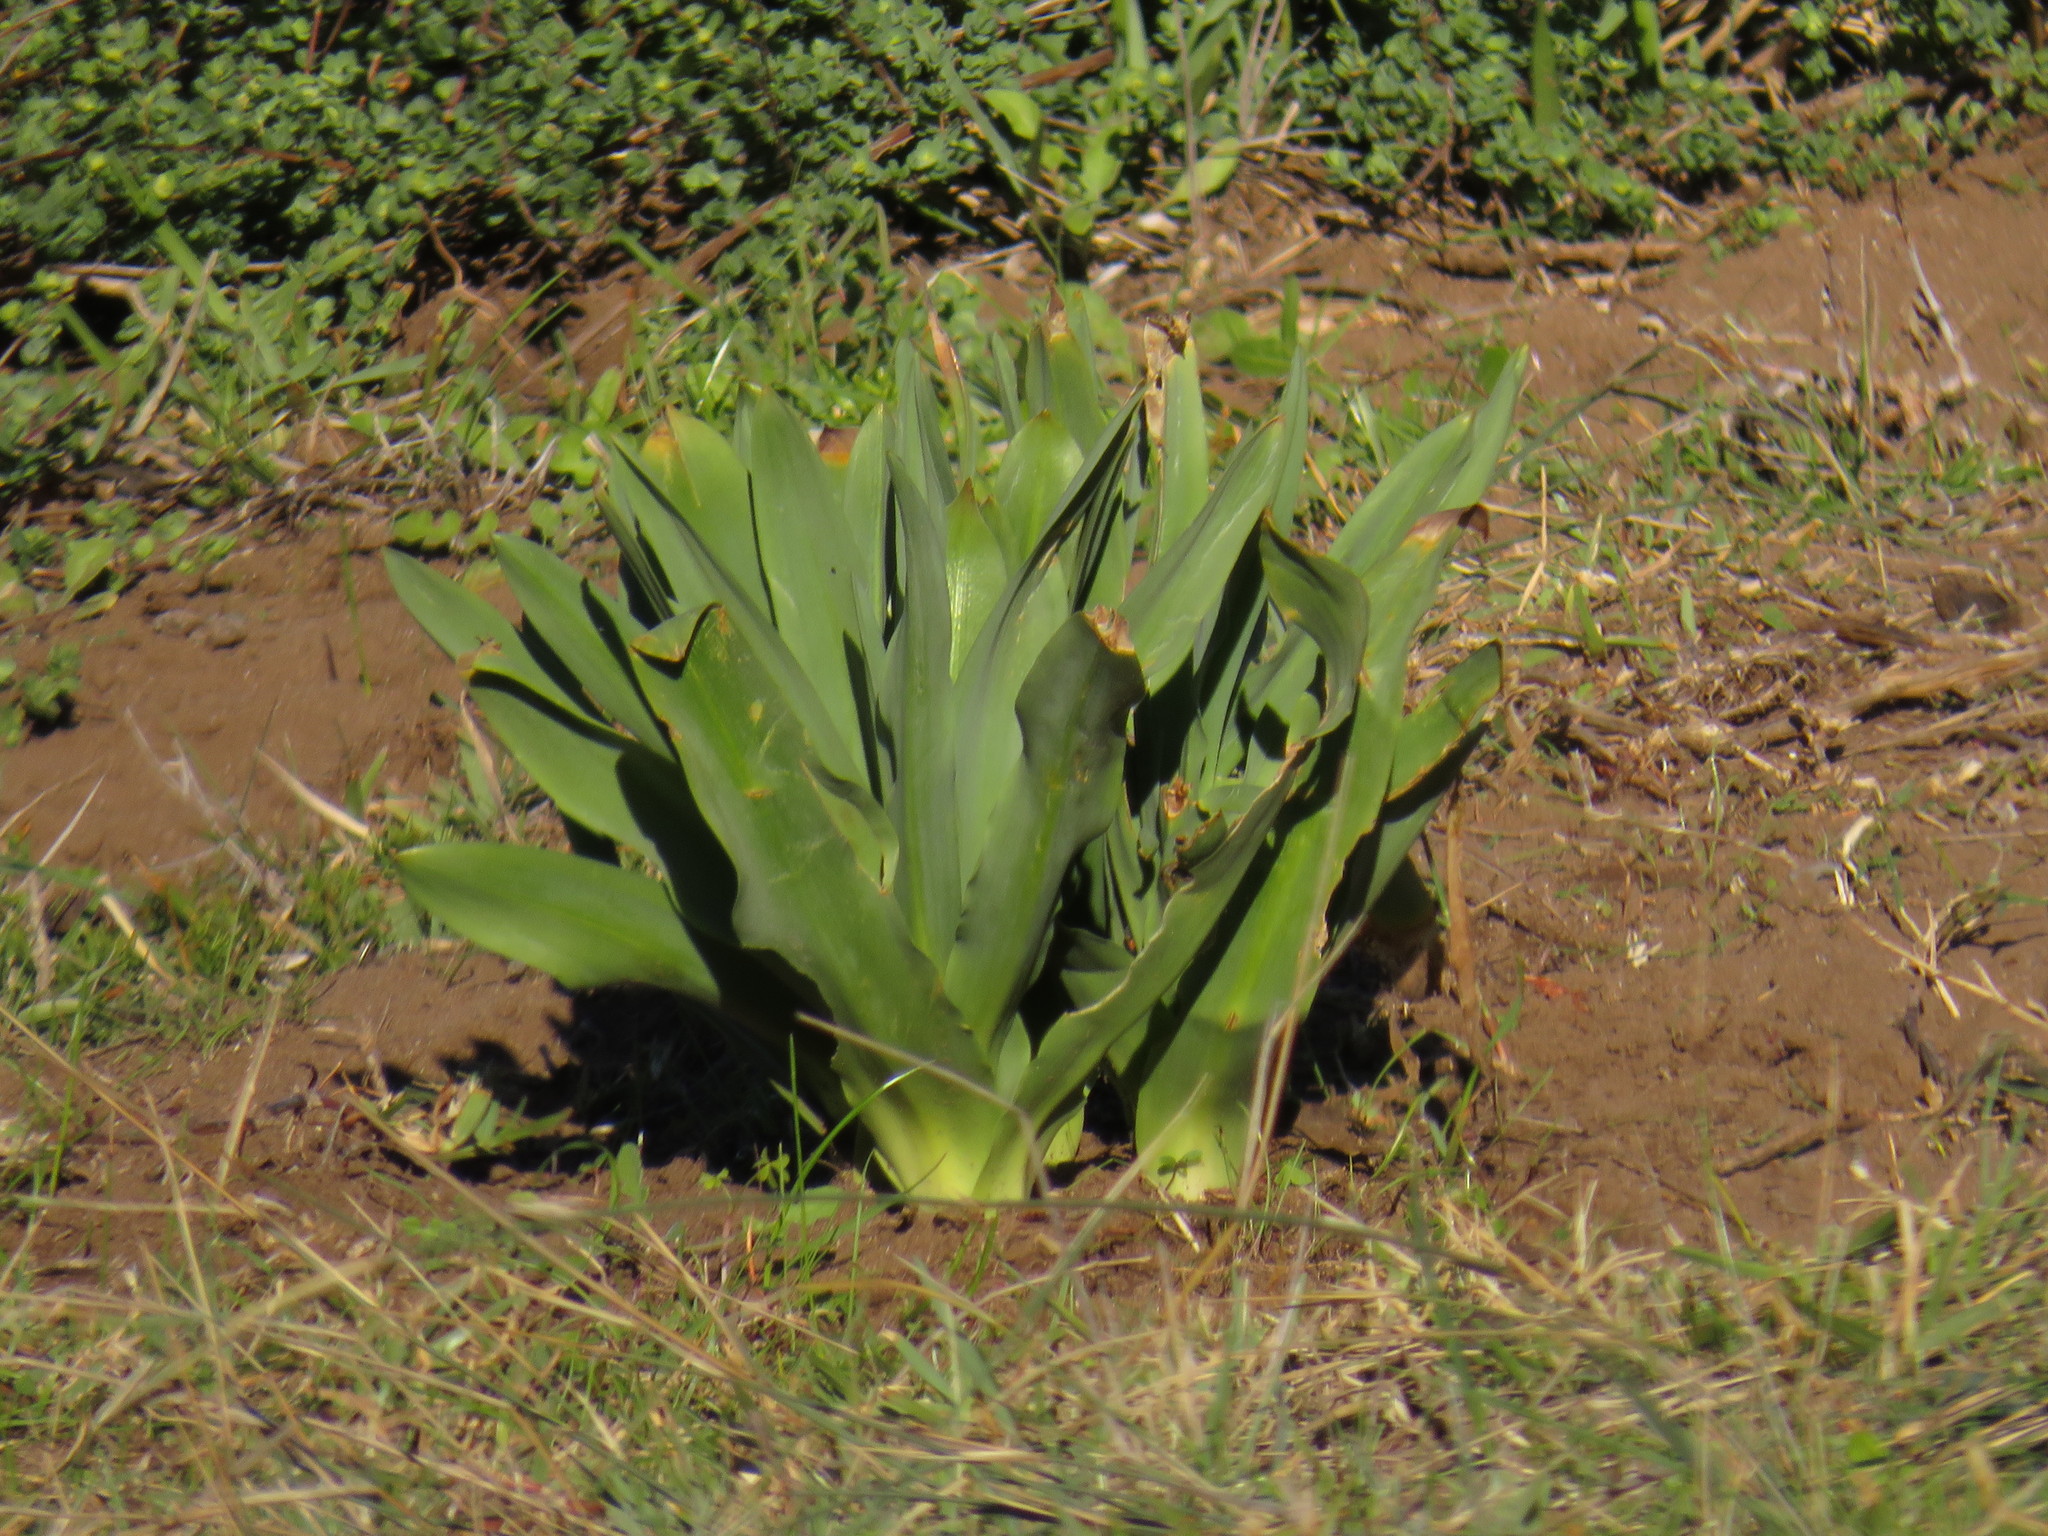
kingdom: Plantae
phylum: Tracheophyta
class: Liliopsida
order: Asparagales
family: Asparagaceae
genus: Drimia
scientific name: Drimia elata
